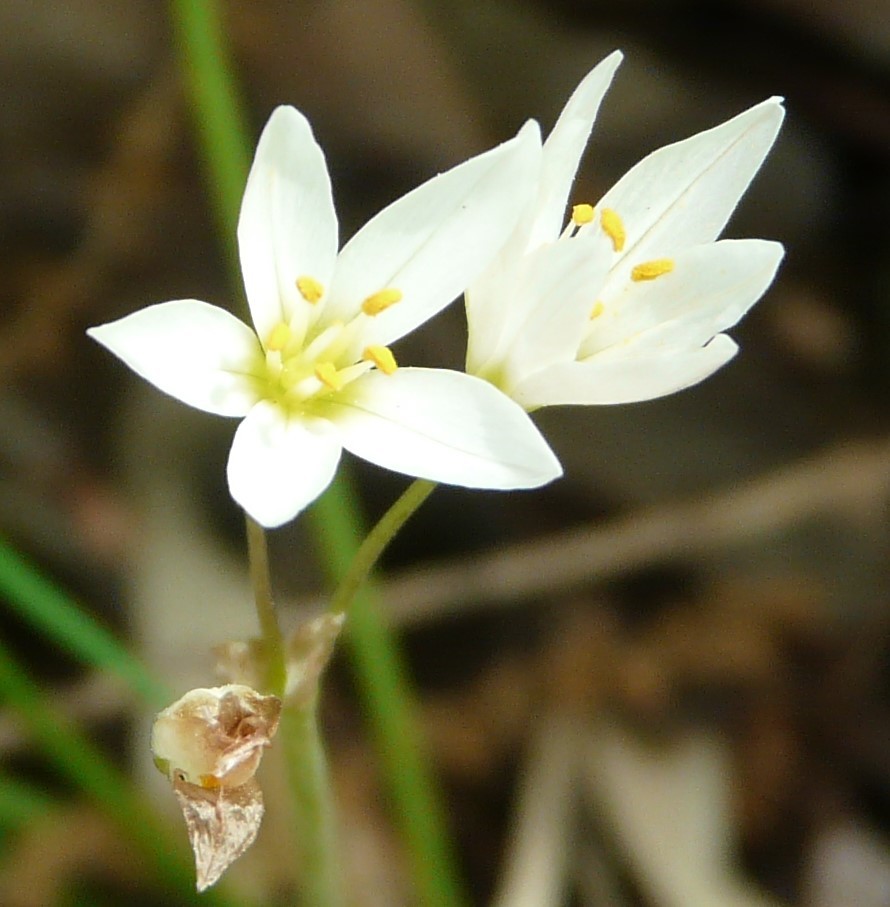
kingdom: Plantae
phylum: Tracheophyta
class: Liliopsida
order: Asparagales
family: Amaryllidaceae
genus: Nothoscordum
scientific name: Nothoscordum bivalve
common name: Crow-poison
